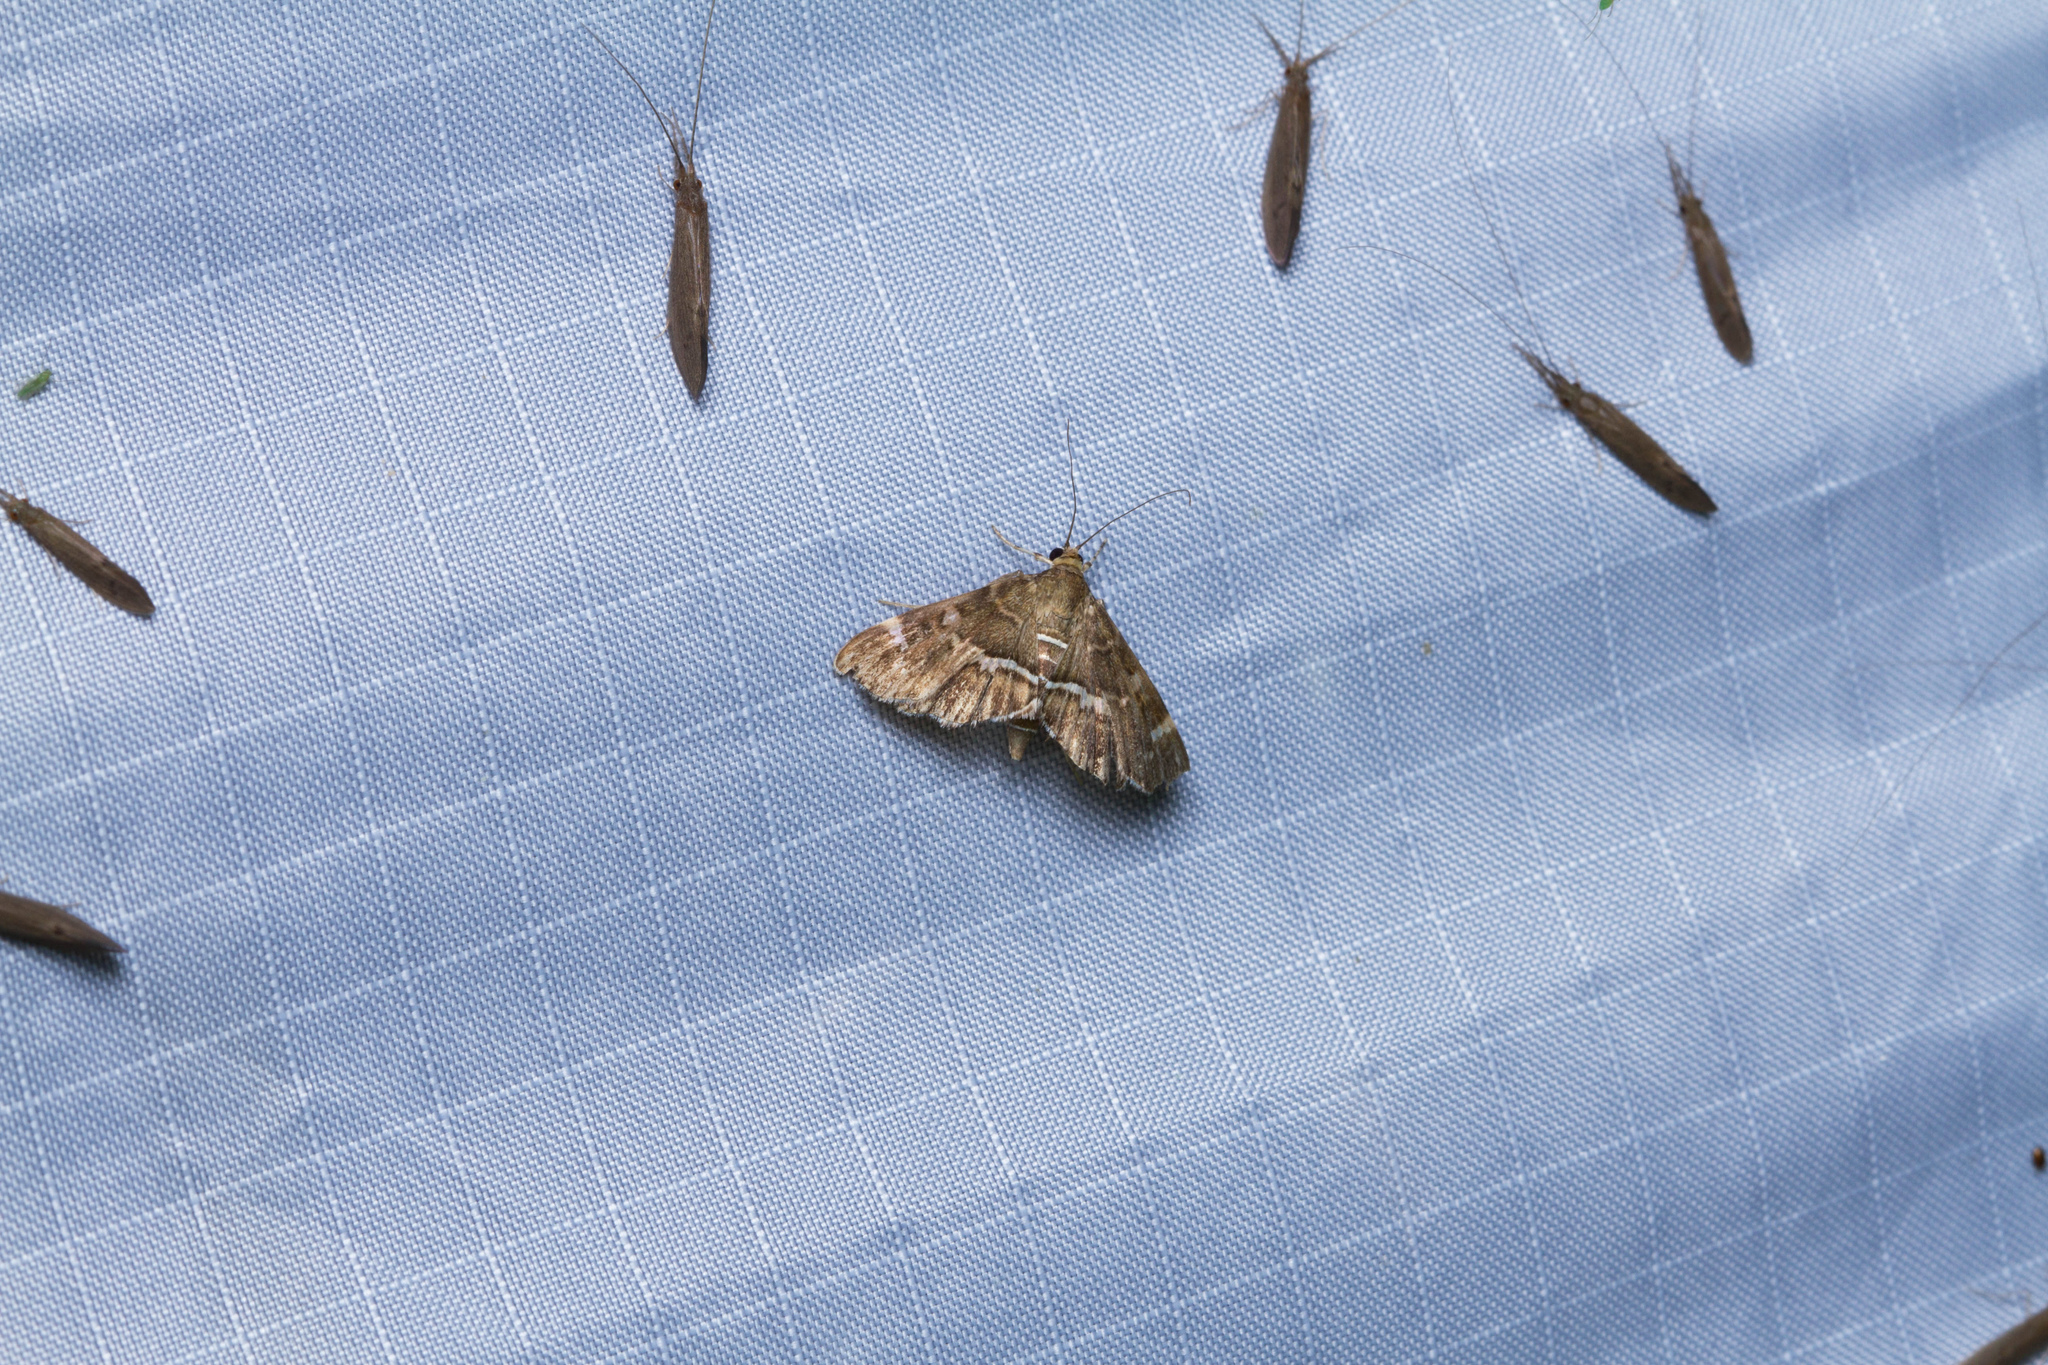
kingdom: Animalia
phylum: Arthropoda
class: Insecta
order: Lepidoptera
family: Crambidae
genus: Hymenia
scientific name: Hymenia perspectalis
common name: Spotted beet webworm
